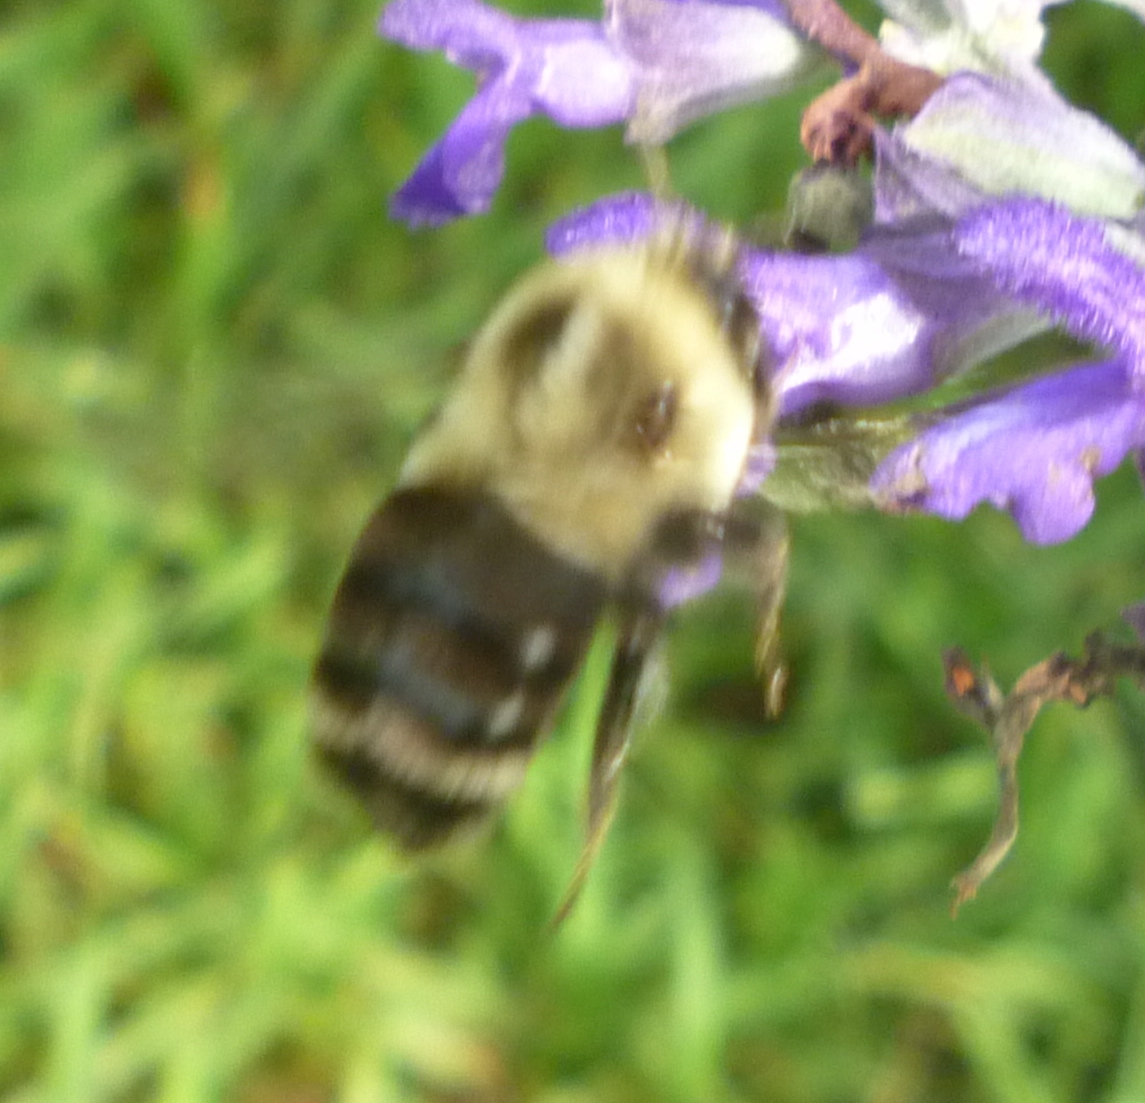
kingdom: Animalia
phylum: Arthropoda
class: Insecta
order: Hymenoptera
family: Apidae
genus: Bombus
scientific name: Bombus impatiens
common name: Common eastern bumble bee
